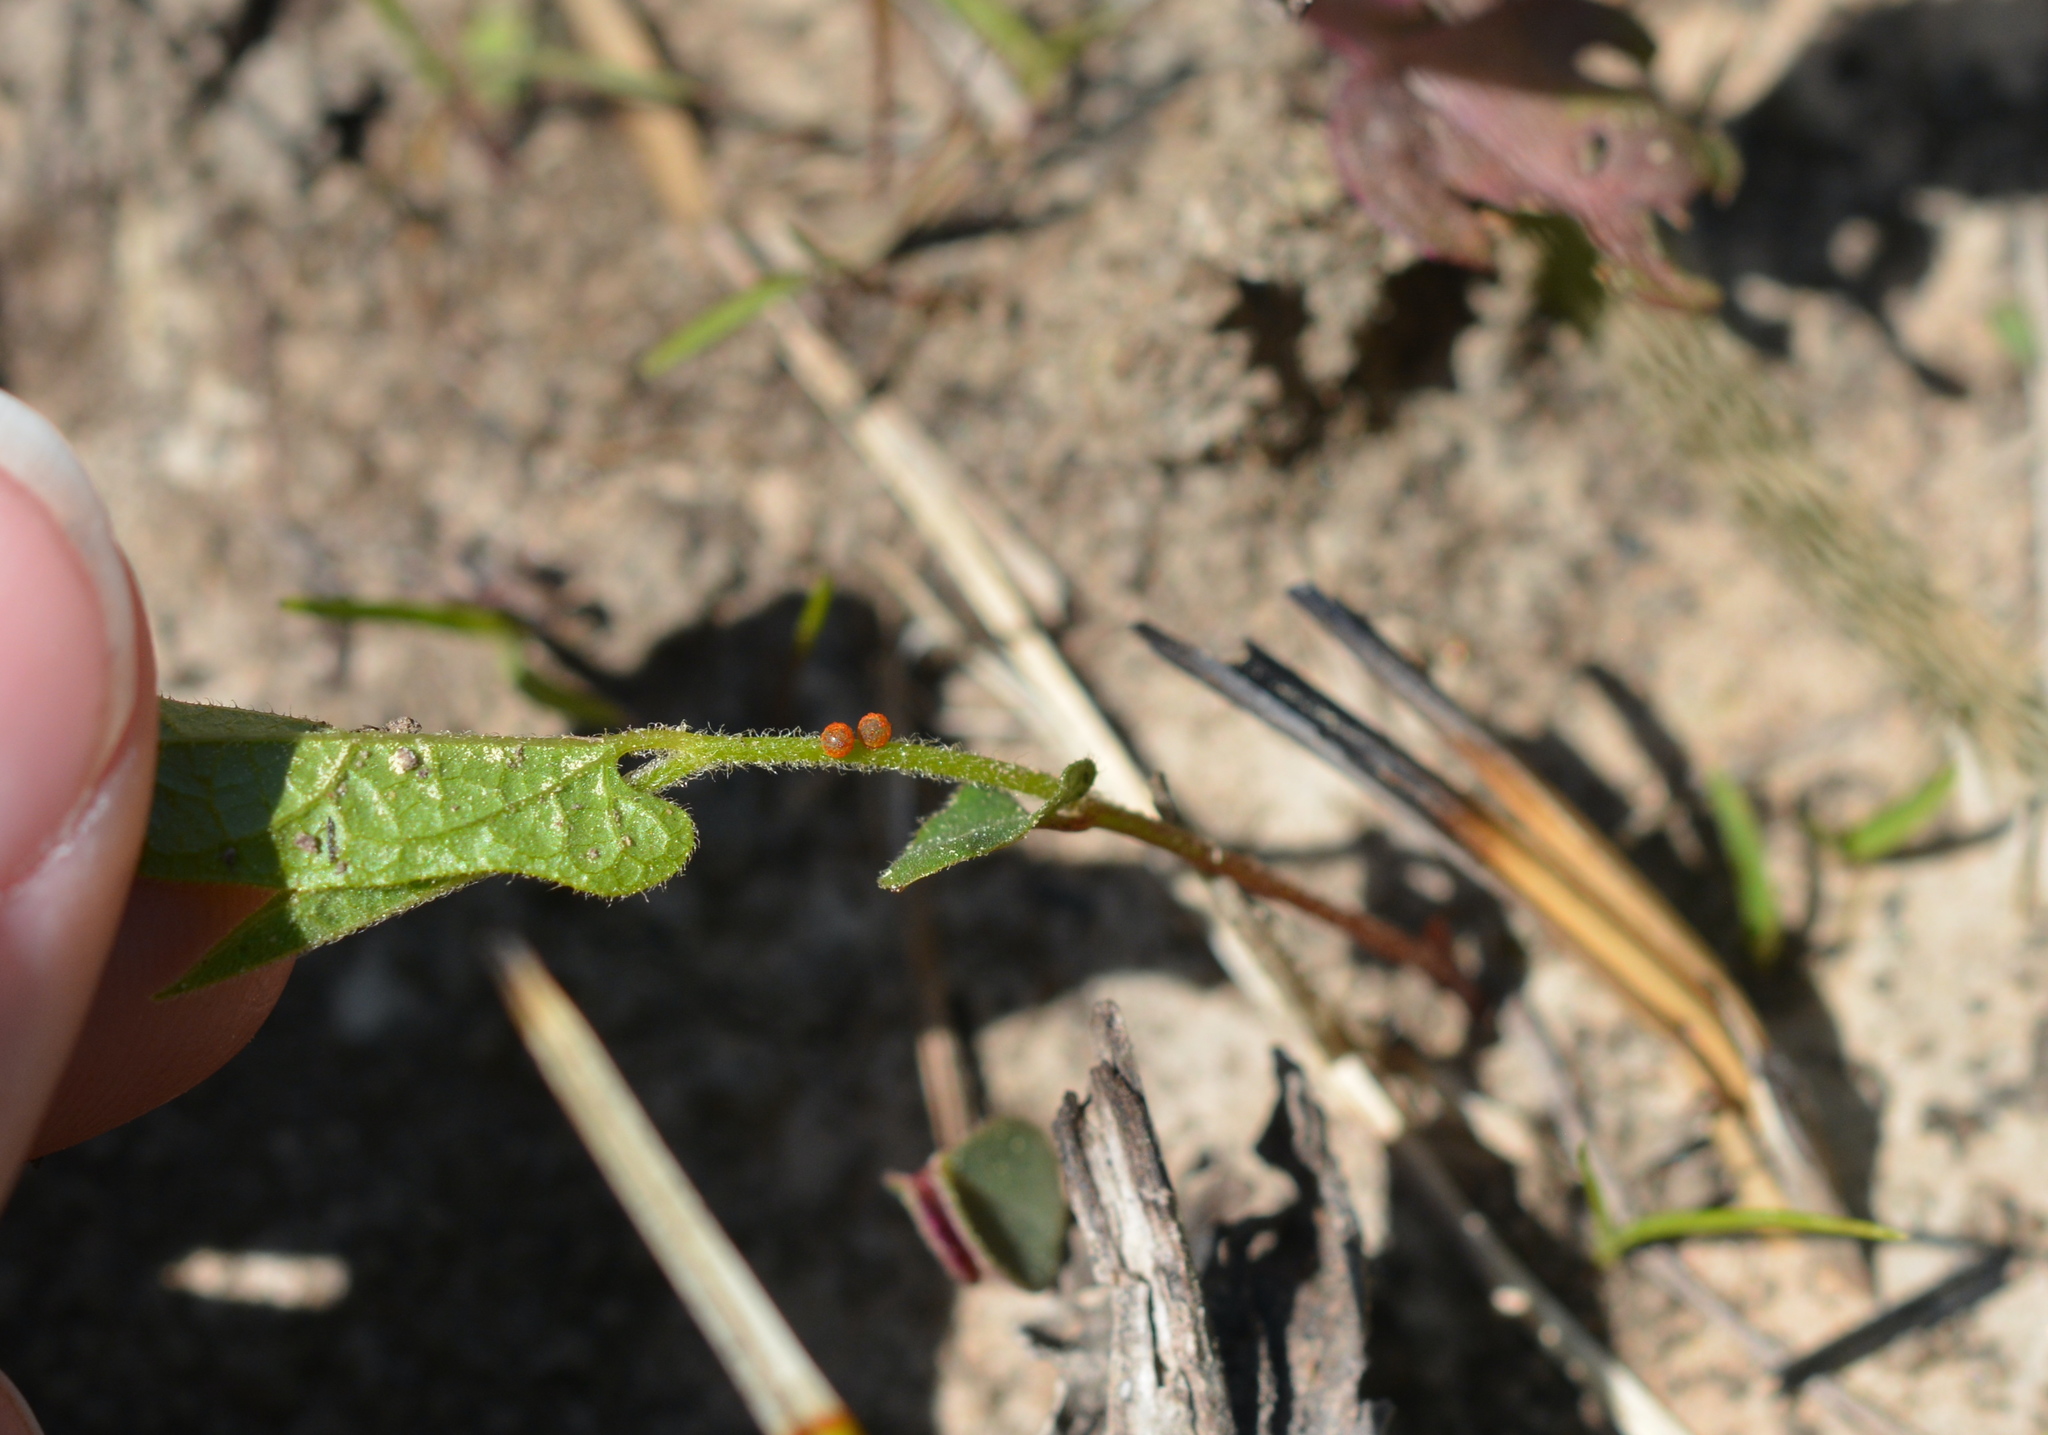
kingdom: Animalia
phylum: Arthropoda
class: Insecta
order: Lepidoptera
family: Papilionidae
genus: Battus
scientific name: Battus philenor
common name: Pipevine swallowtail
